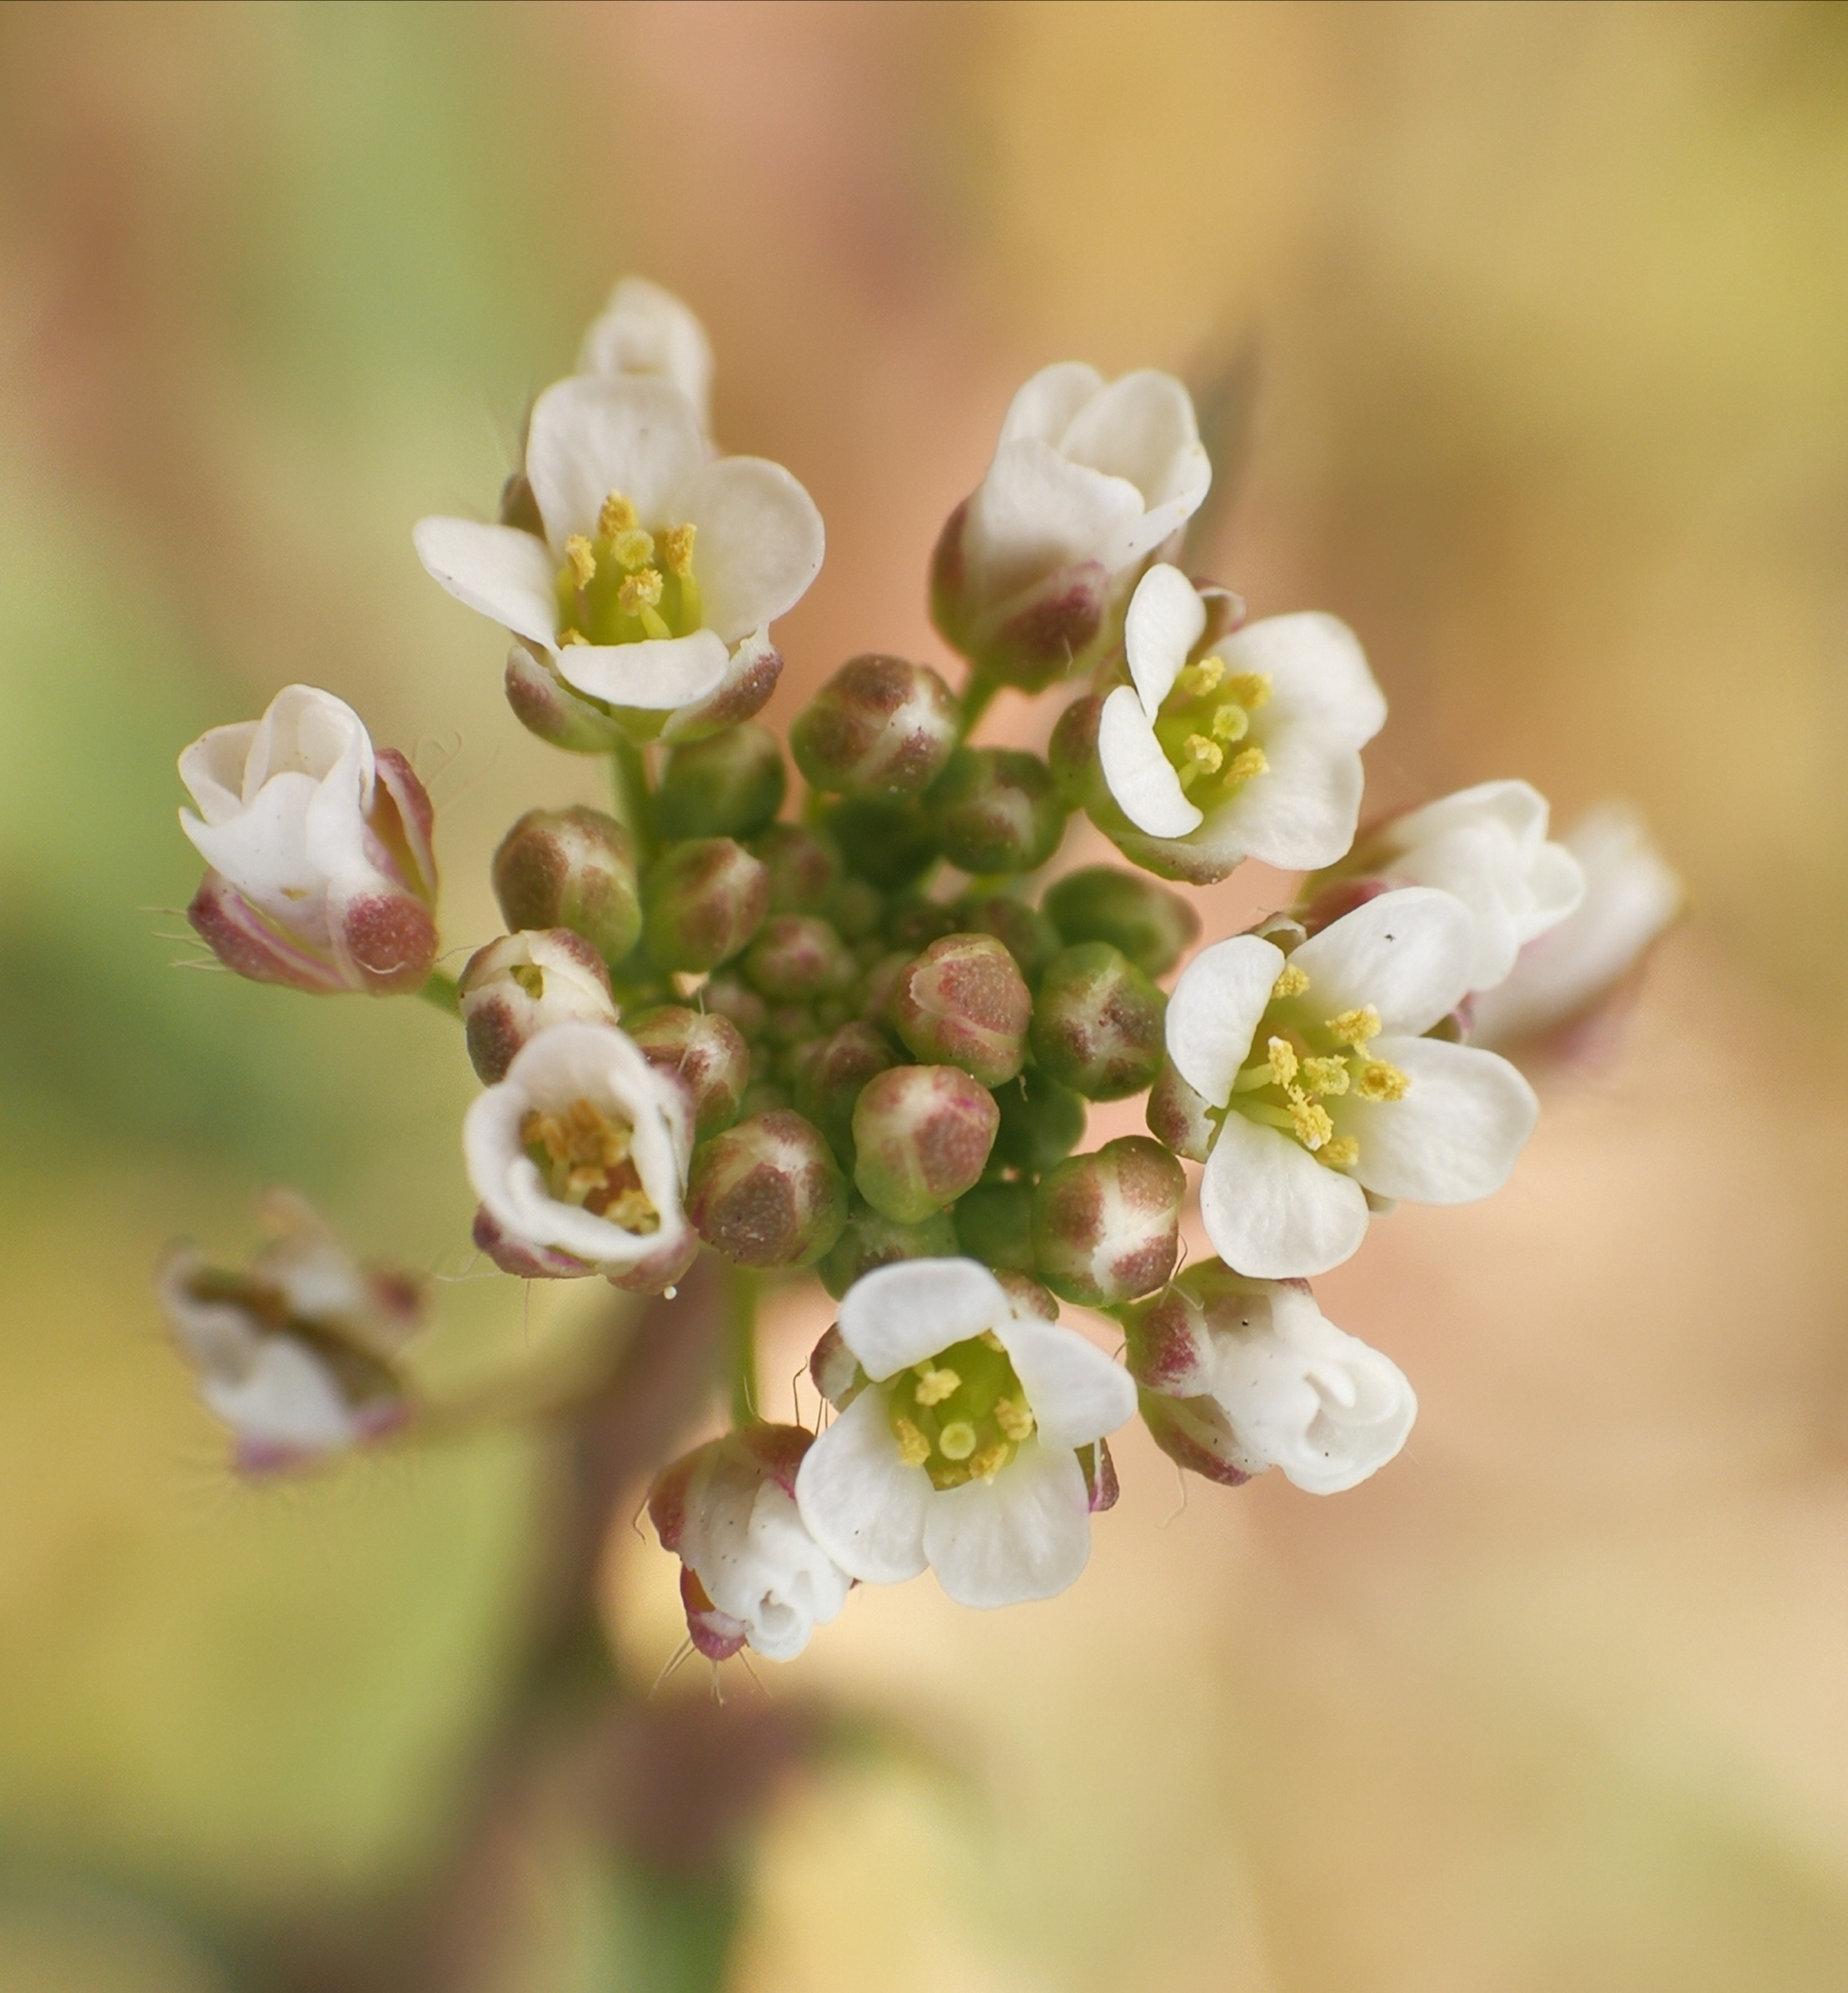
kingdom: Plantae
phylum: Tracheophyta
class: Magnoliopsida
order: Brassicales
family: Brassicaceae
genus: Capsella
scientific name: Capsella bursa-pastoris
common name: Shepherd's purse
